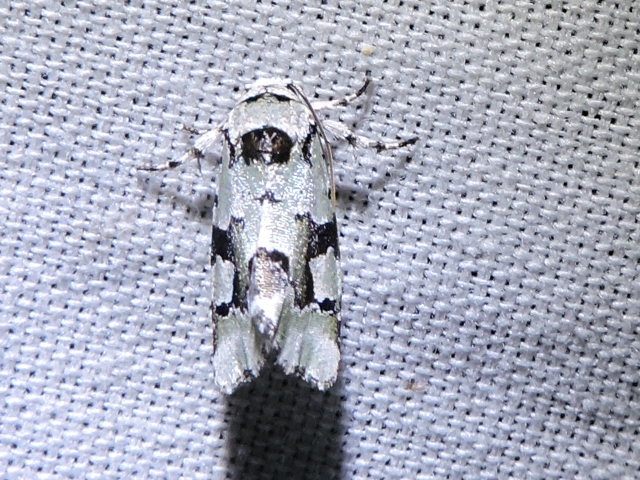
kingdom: Animalia
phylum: Arthropoda
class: Insecta
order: Lepidoptera
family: Noctuidae
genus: Emarginea
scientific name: Emarginea percara
